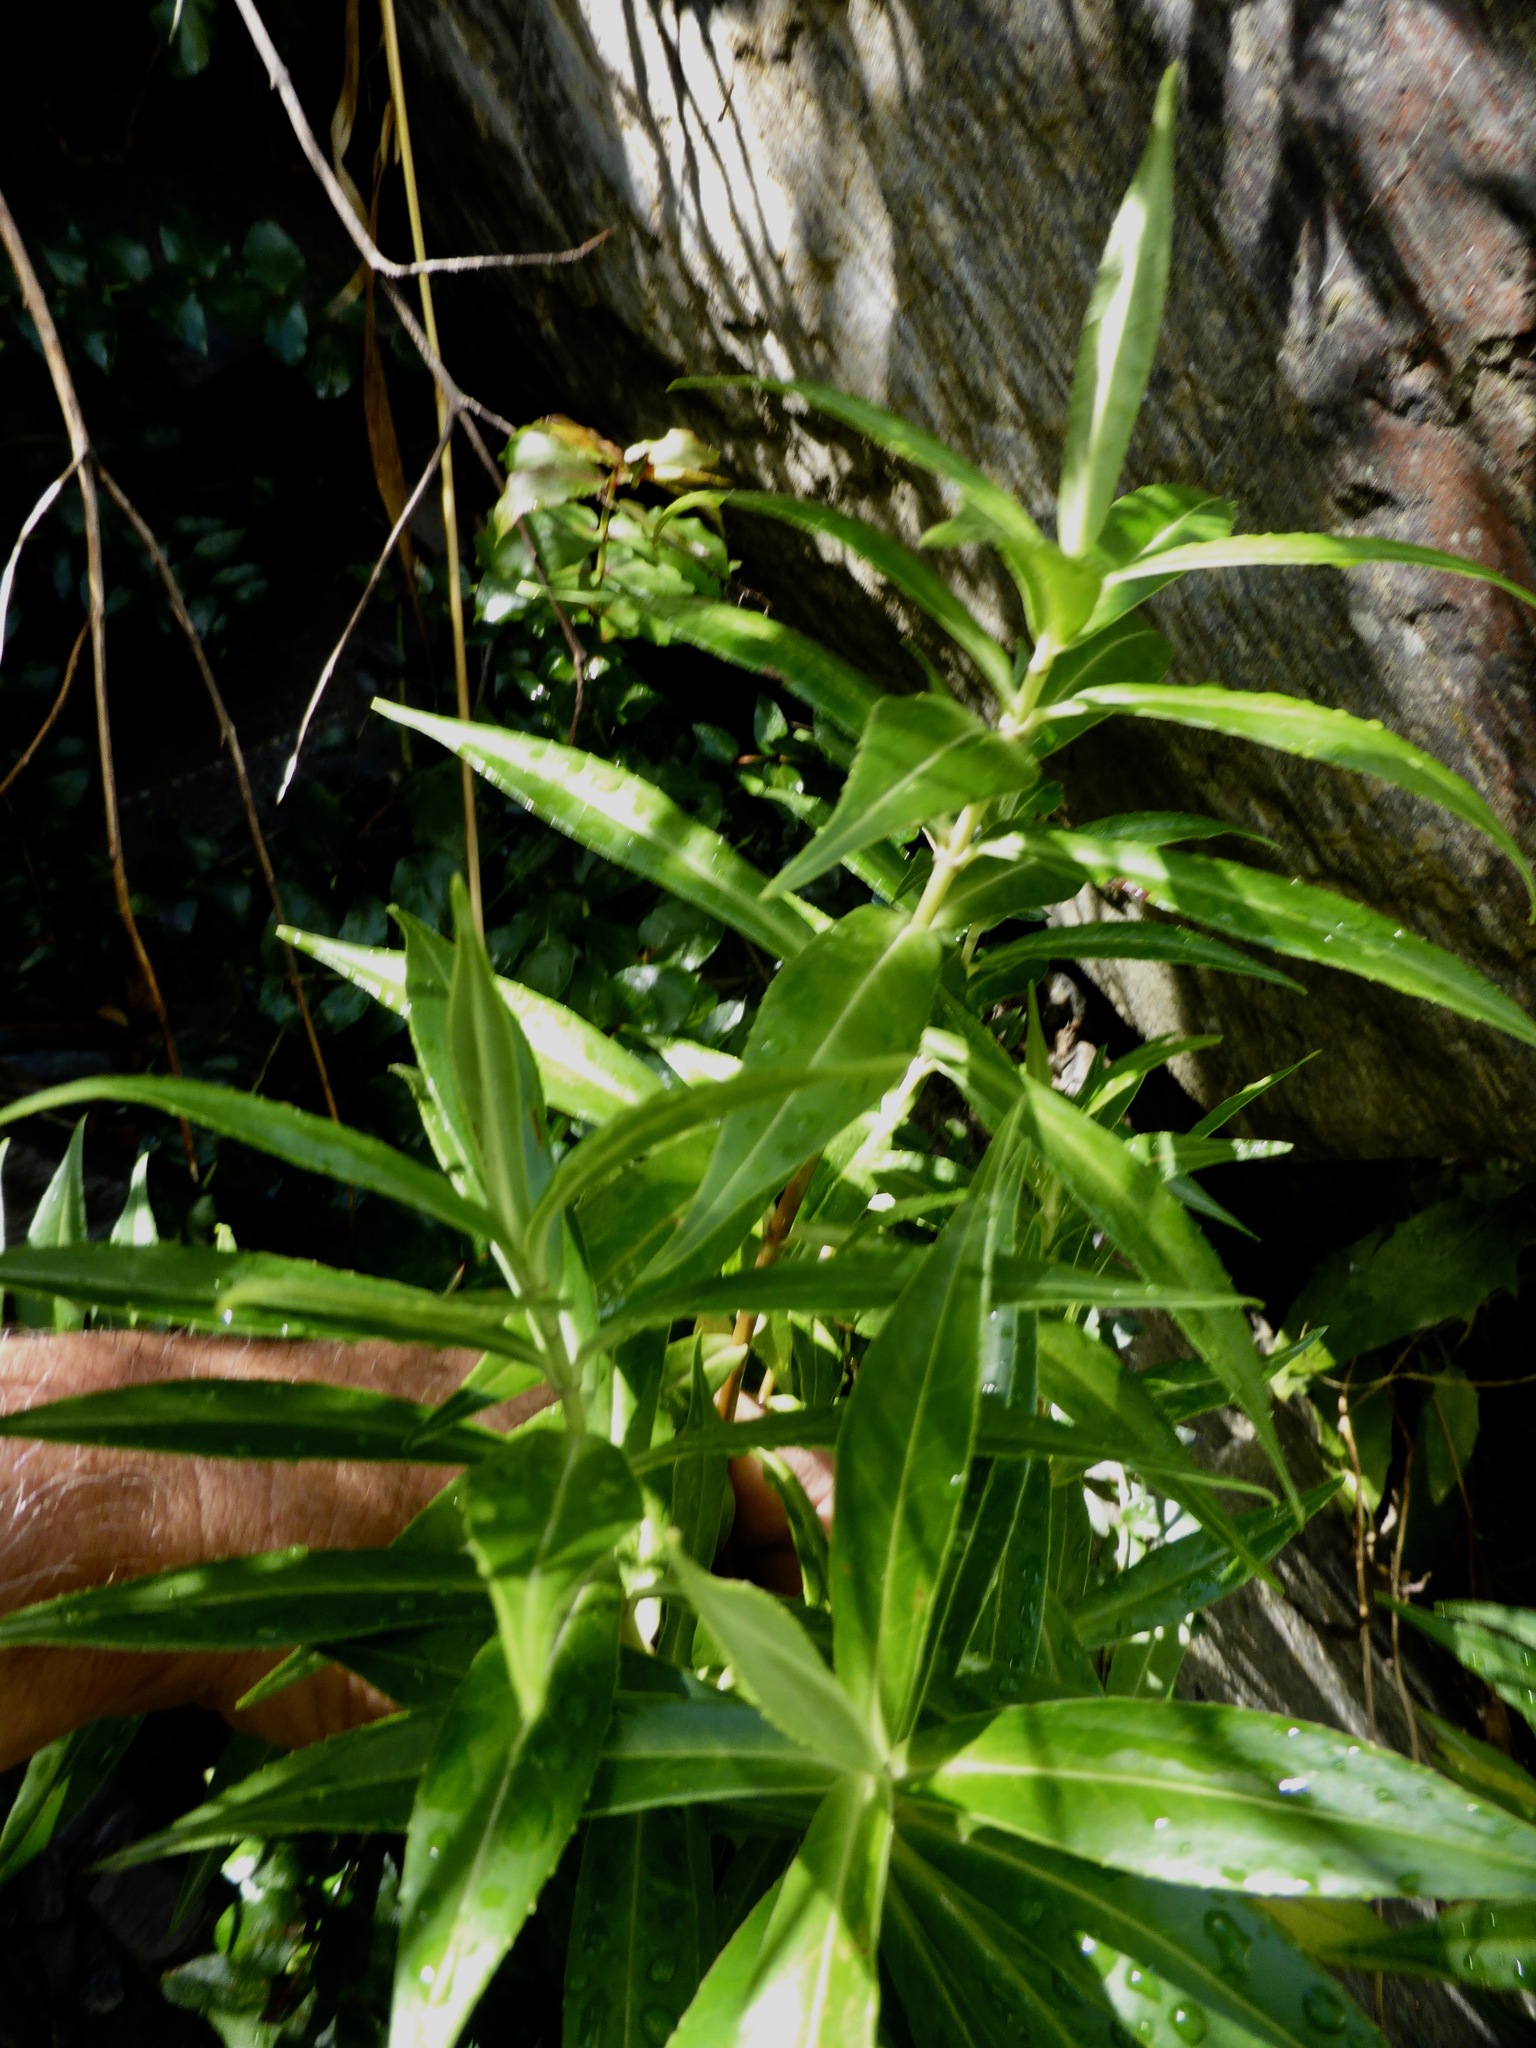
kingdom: Plantae
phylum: Tracheophyta
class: Magnoliopsida
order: Lamiales
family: Plantaginaceae
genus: Veronica
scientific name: Veronica salicifolia
